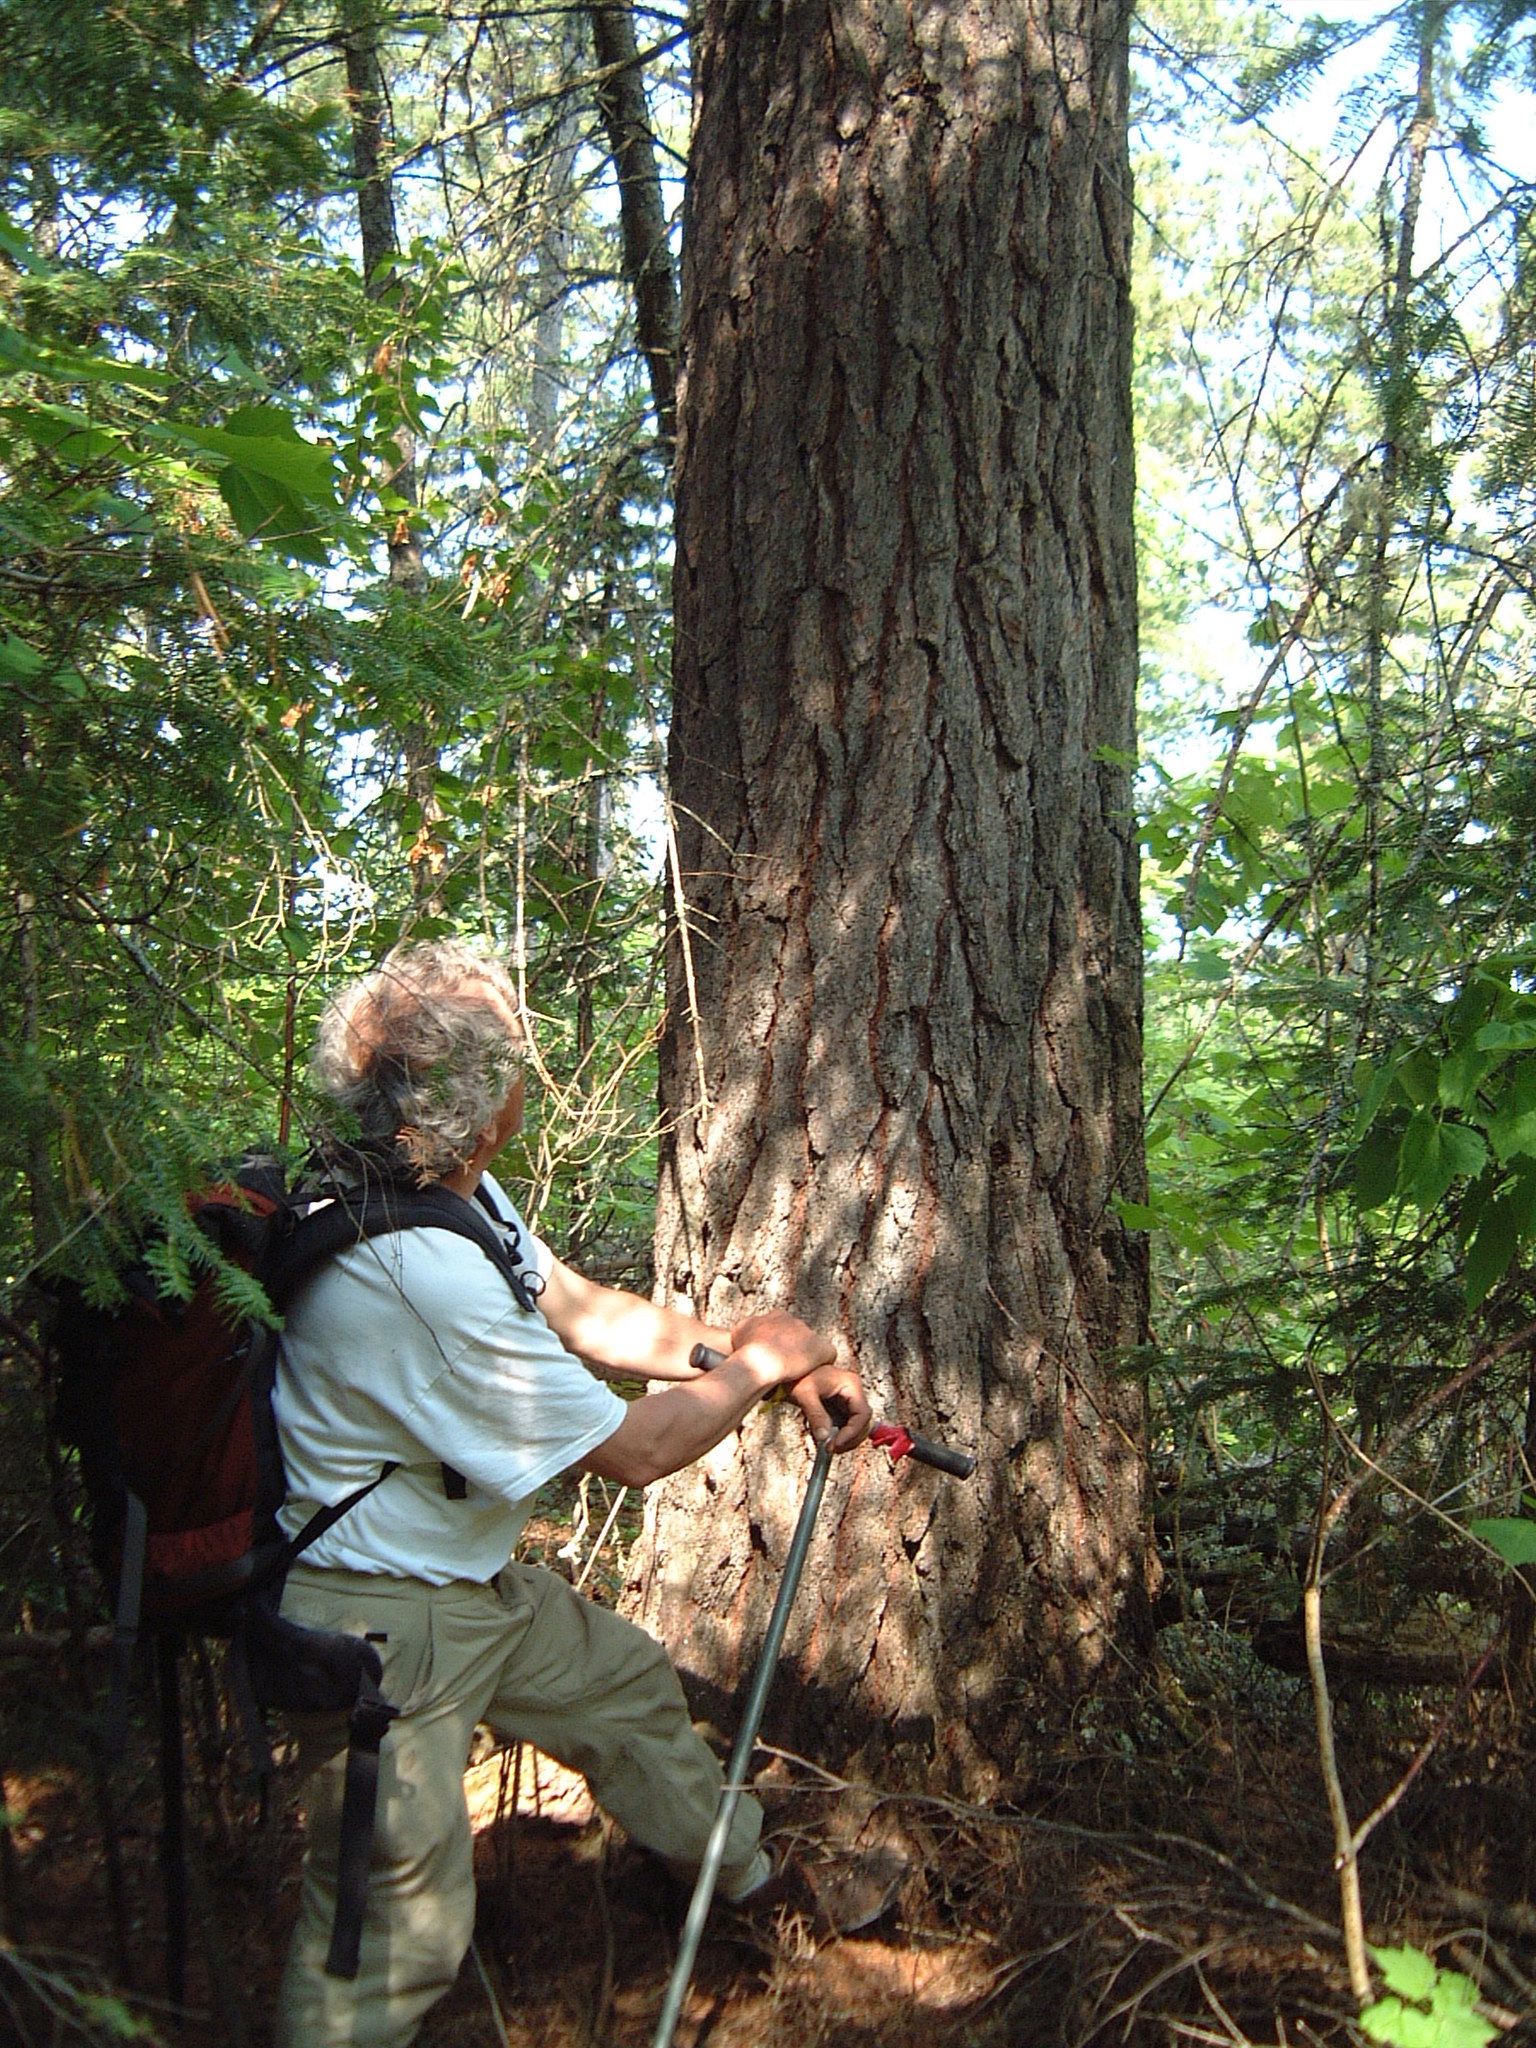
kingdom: Plantae
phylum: Tracheophyta
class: Pinopsida
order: Pinales
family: Pinaceae
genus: Pinus
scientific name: Pinus strobus
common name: Weymouth pine
